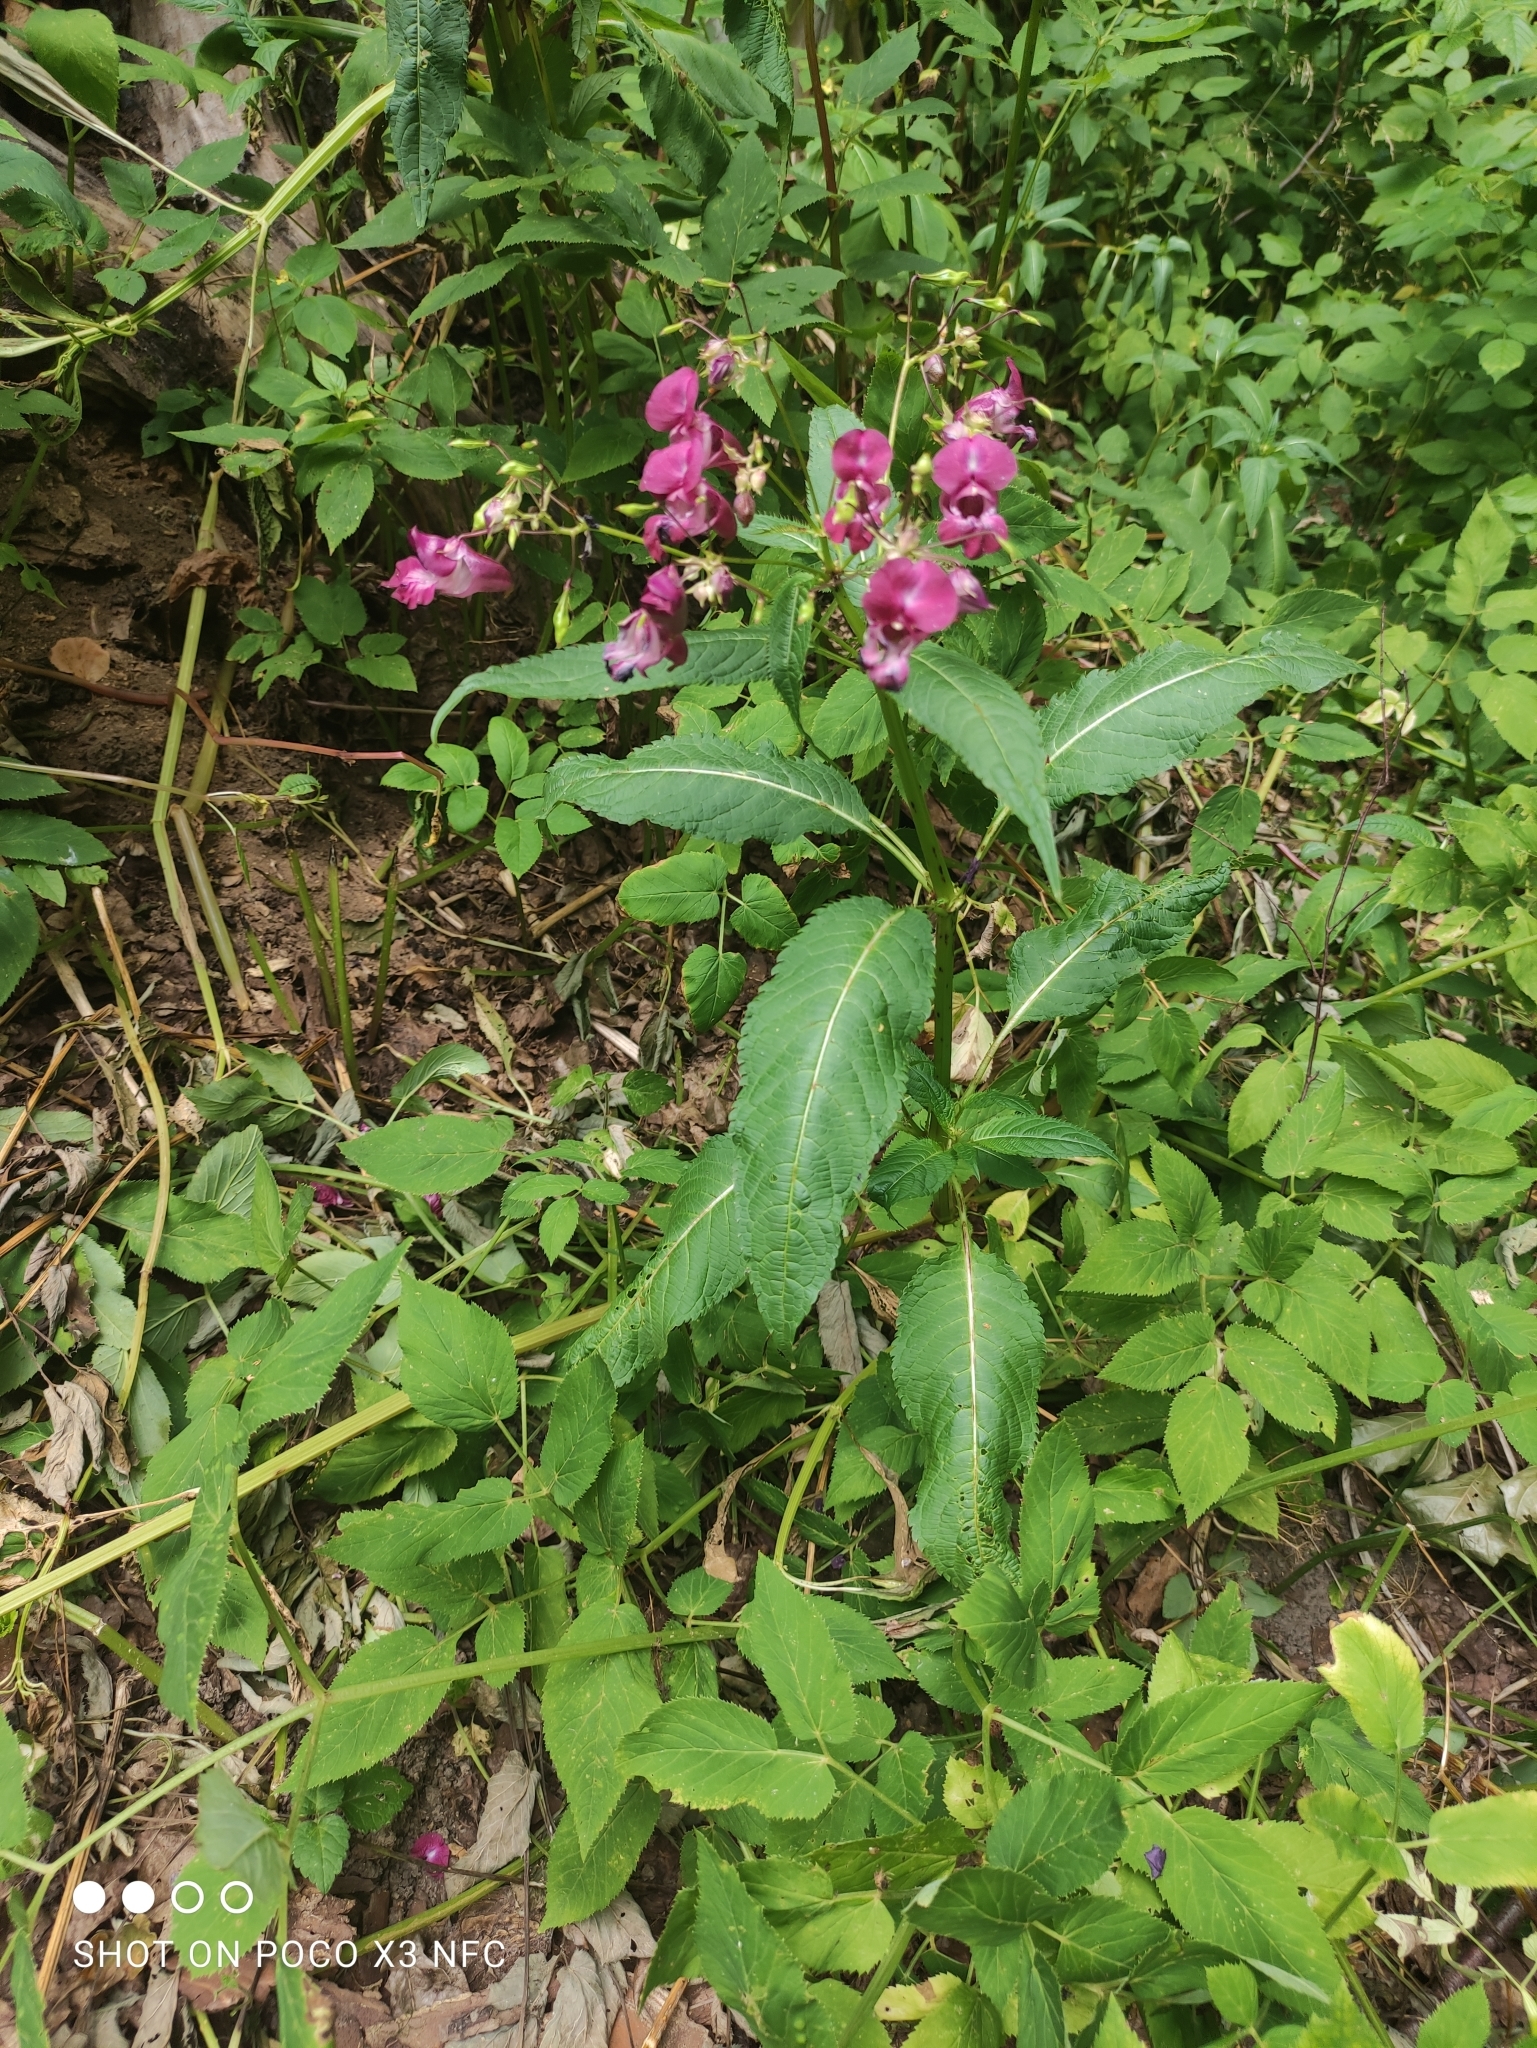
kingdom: Plantae
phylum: Tracheophyta
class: Magnoliopsida
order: Ericales
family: Balsaminaceae
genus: Impatiens
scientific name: Impatiens glandulifera
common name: Himalayan balsam
